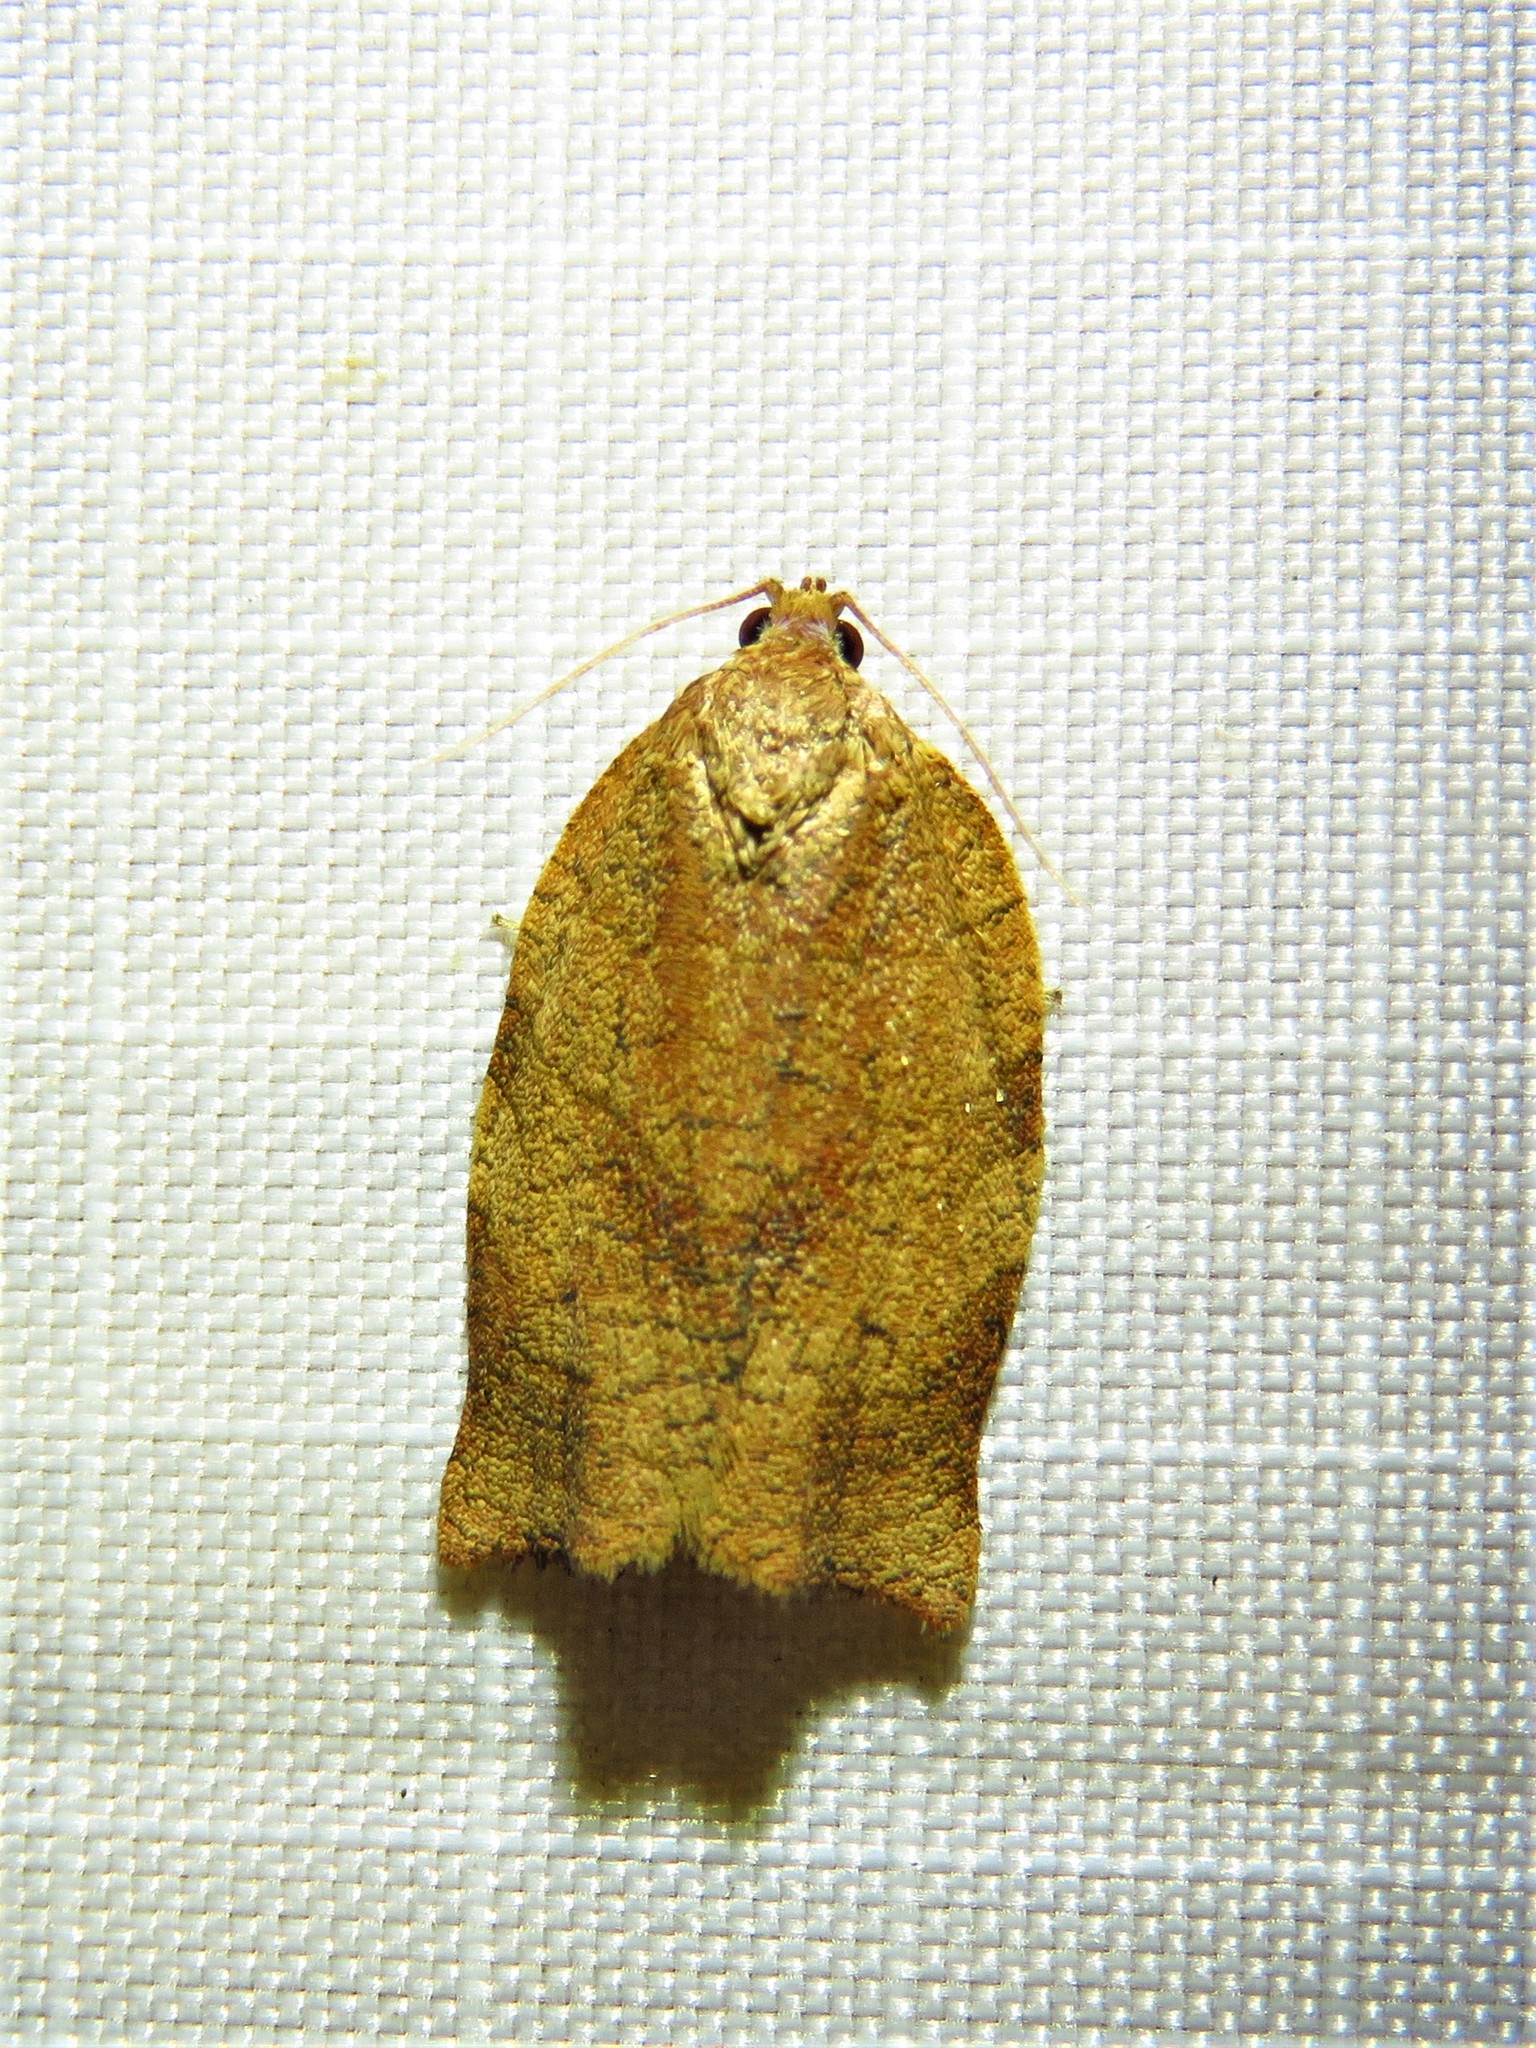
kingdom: Animalia
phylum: Arthropoda
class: Insecta
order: Lepidoptera
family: Tortricidae
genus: Choristoneura
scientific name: Choristoneura rosaceana
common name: Oblique-banded leafroller moth
